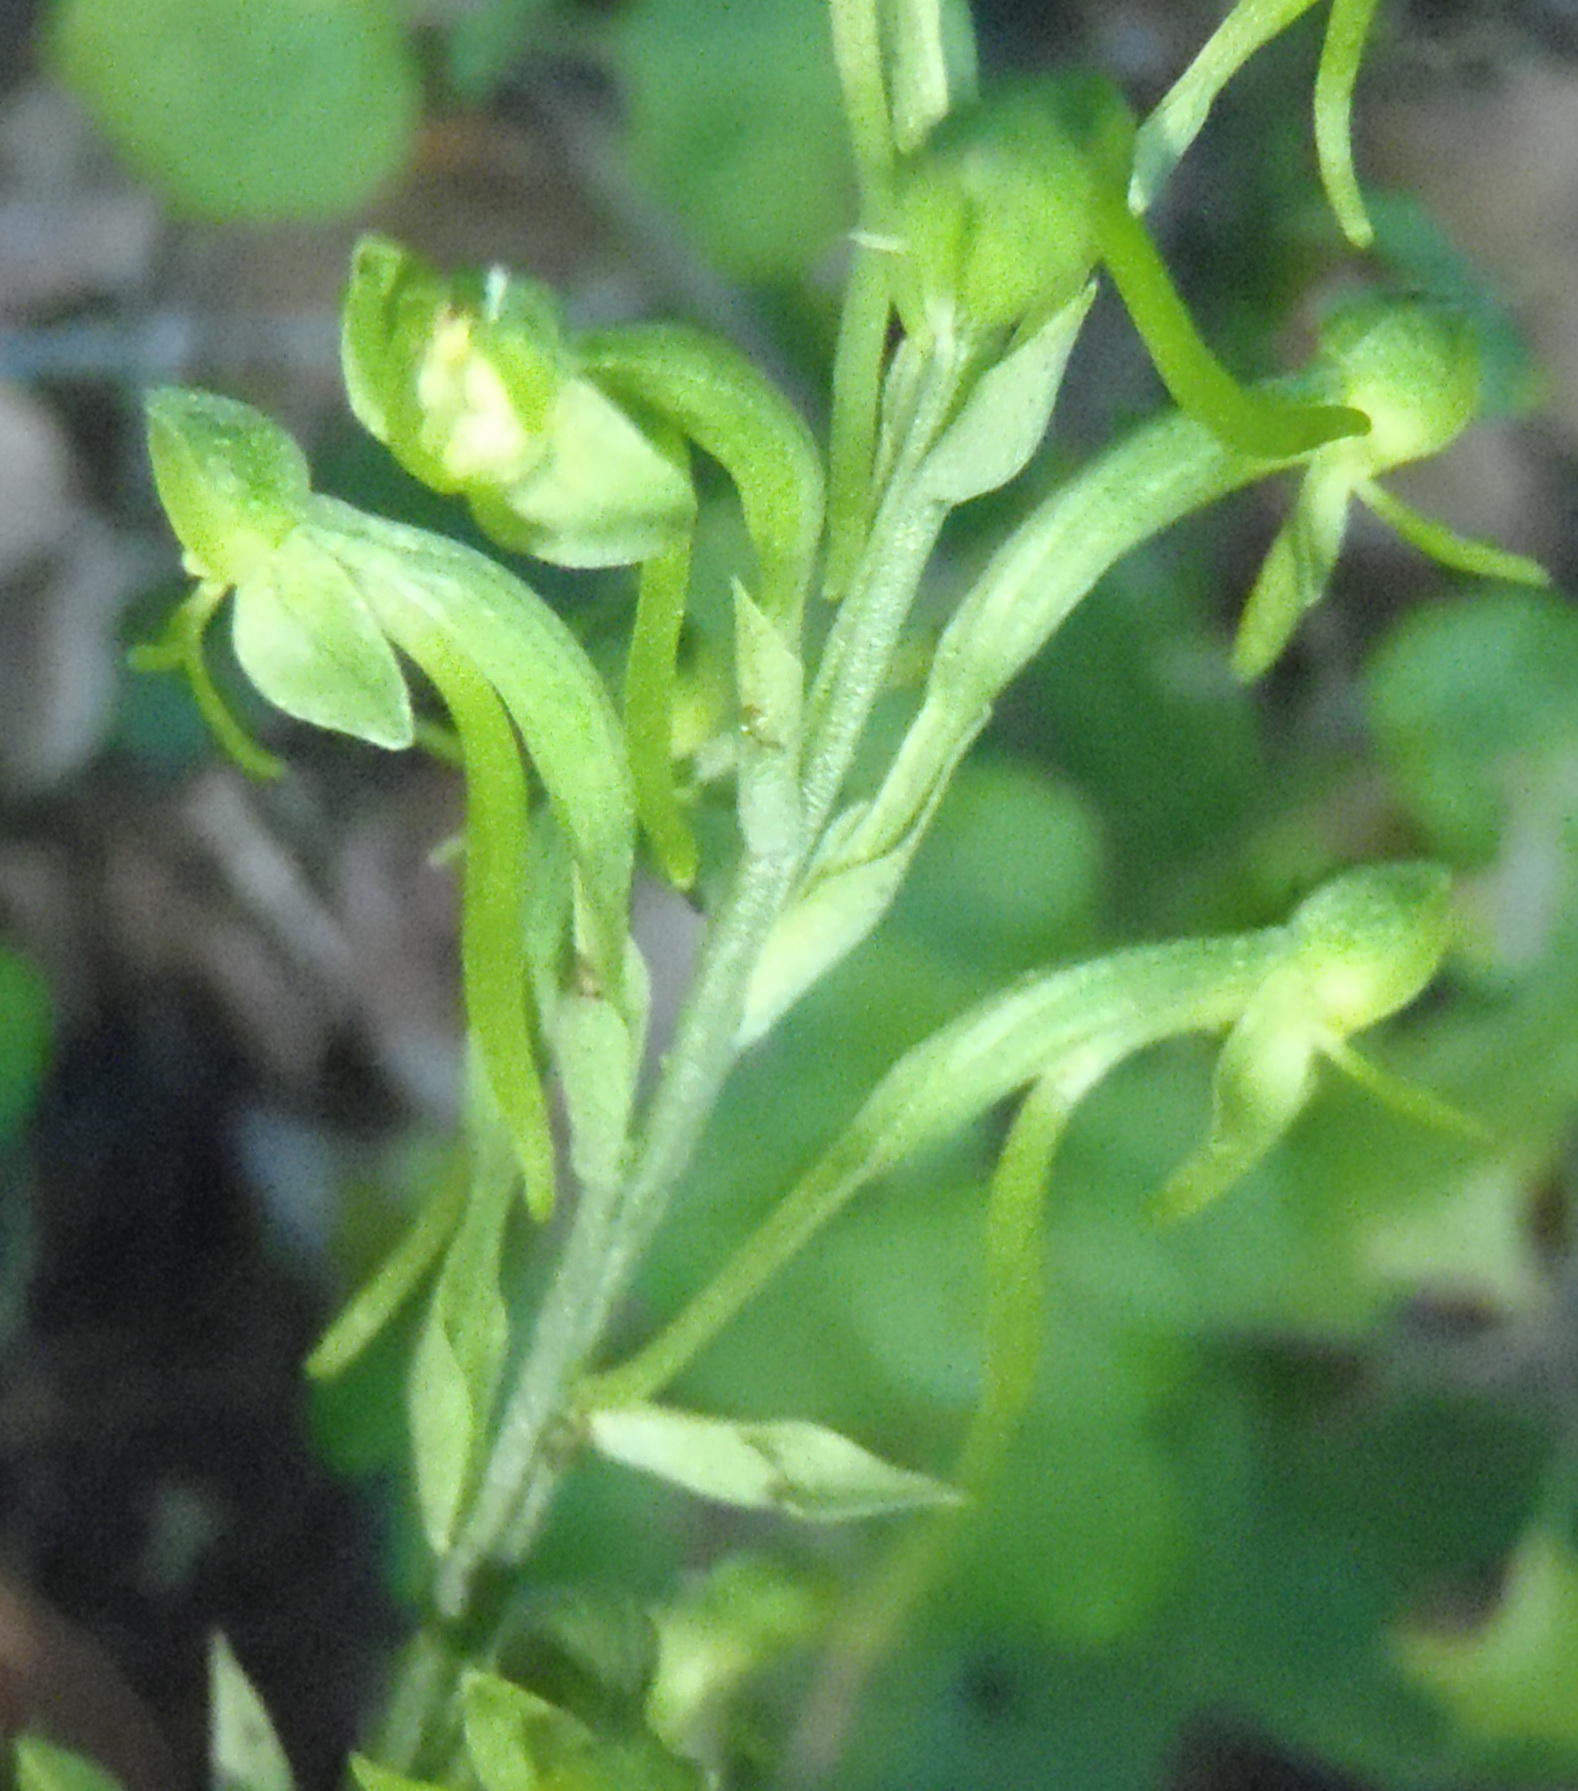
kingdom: Plantae
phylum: Tracheophyta
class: Liliopsida
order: Asparagales
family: Orchidaceae
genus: Habenaria
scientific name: Habenaria arenaria
